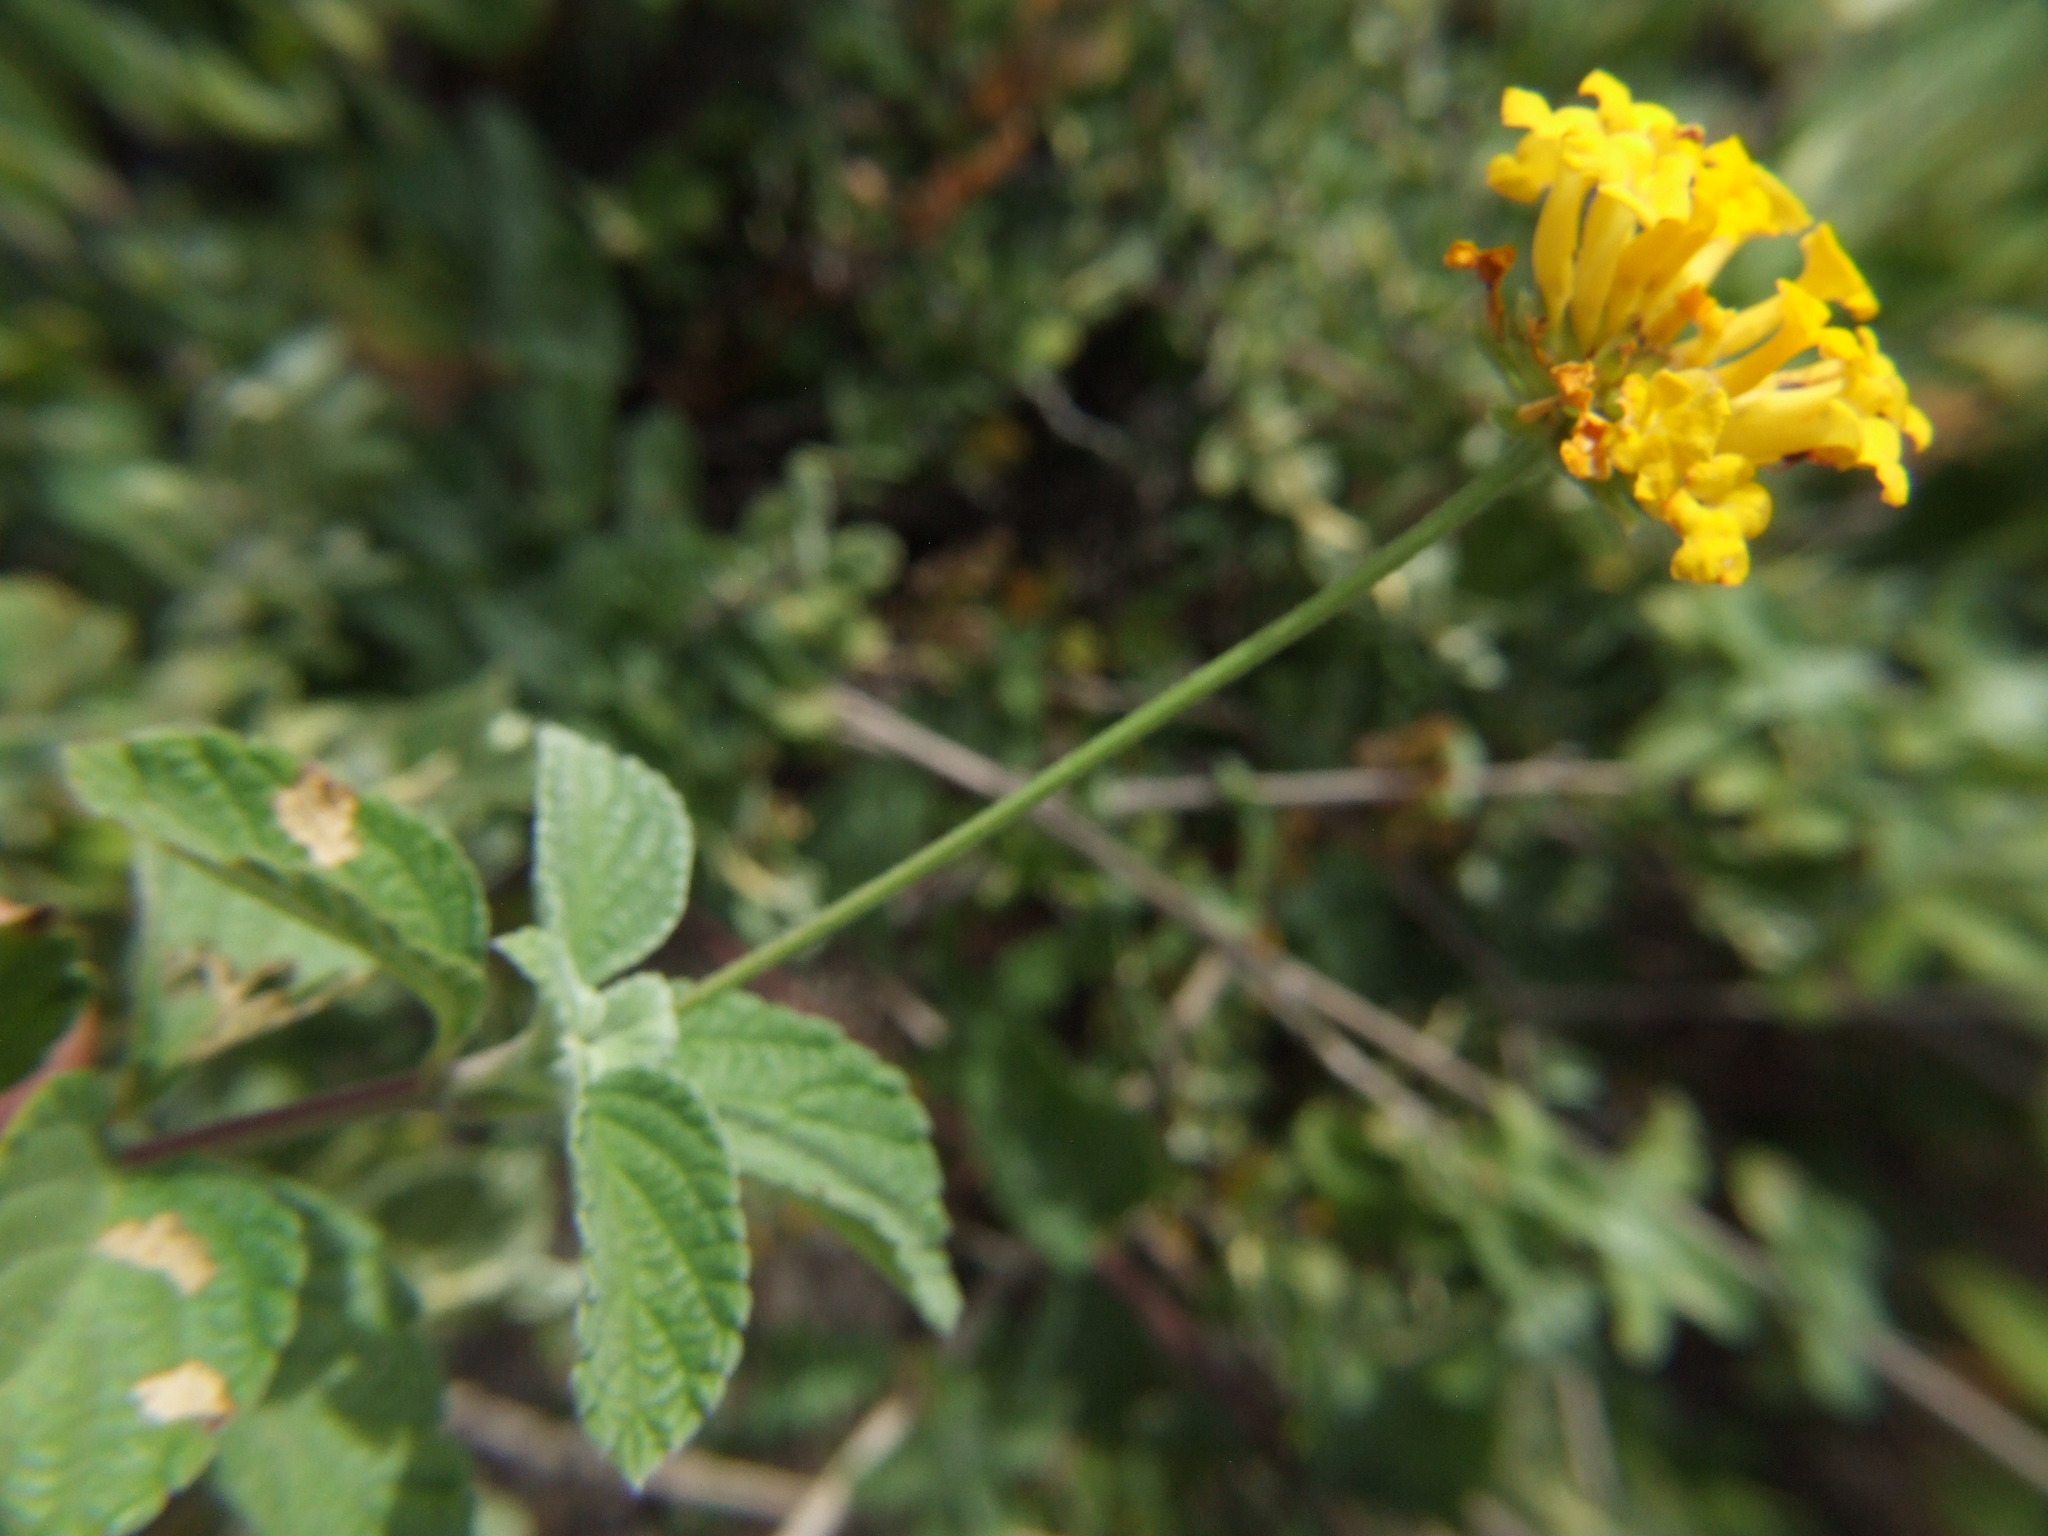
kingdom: Plantae
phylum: Tracheophyta
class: Magnoliopsida
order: Lamiales
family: Verbenaceae
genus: Lantana
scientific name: Lantana scabiosiflora
